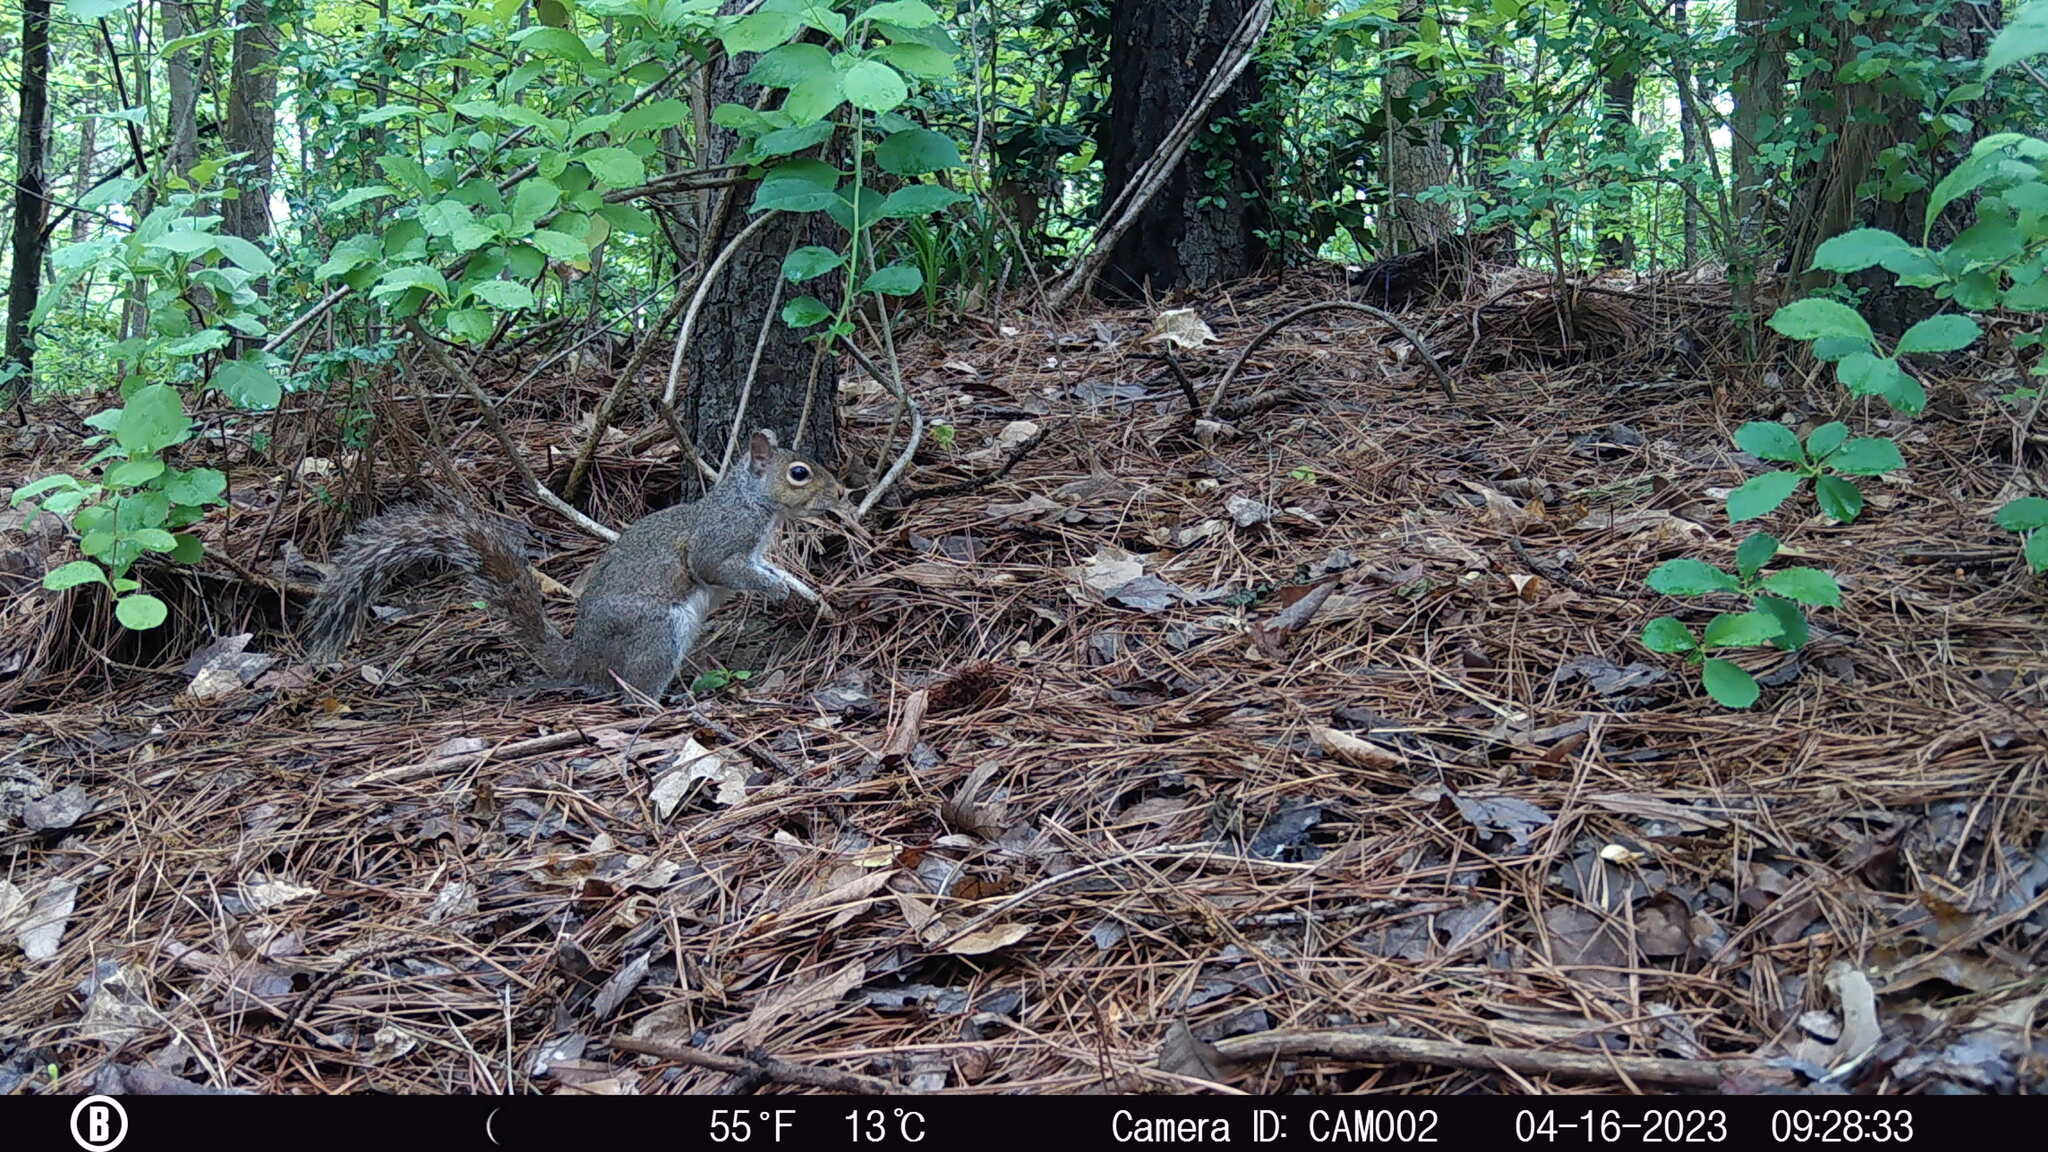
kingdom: Animalia
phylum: Chordata
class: Mammalia
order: Rodentia
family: Sciuridae
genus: Sciurus
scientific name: Sciurus carolinensis
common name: Eastern gray squirrel
